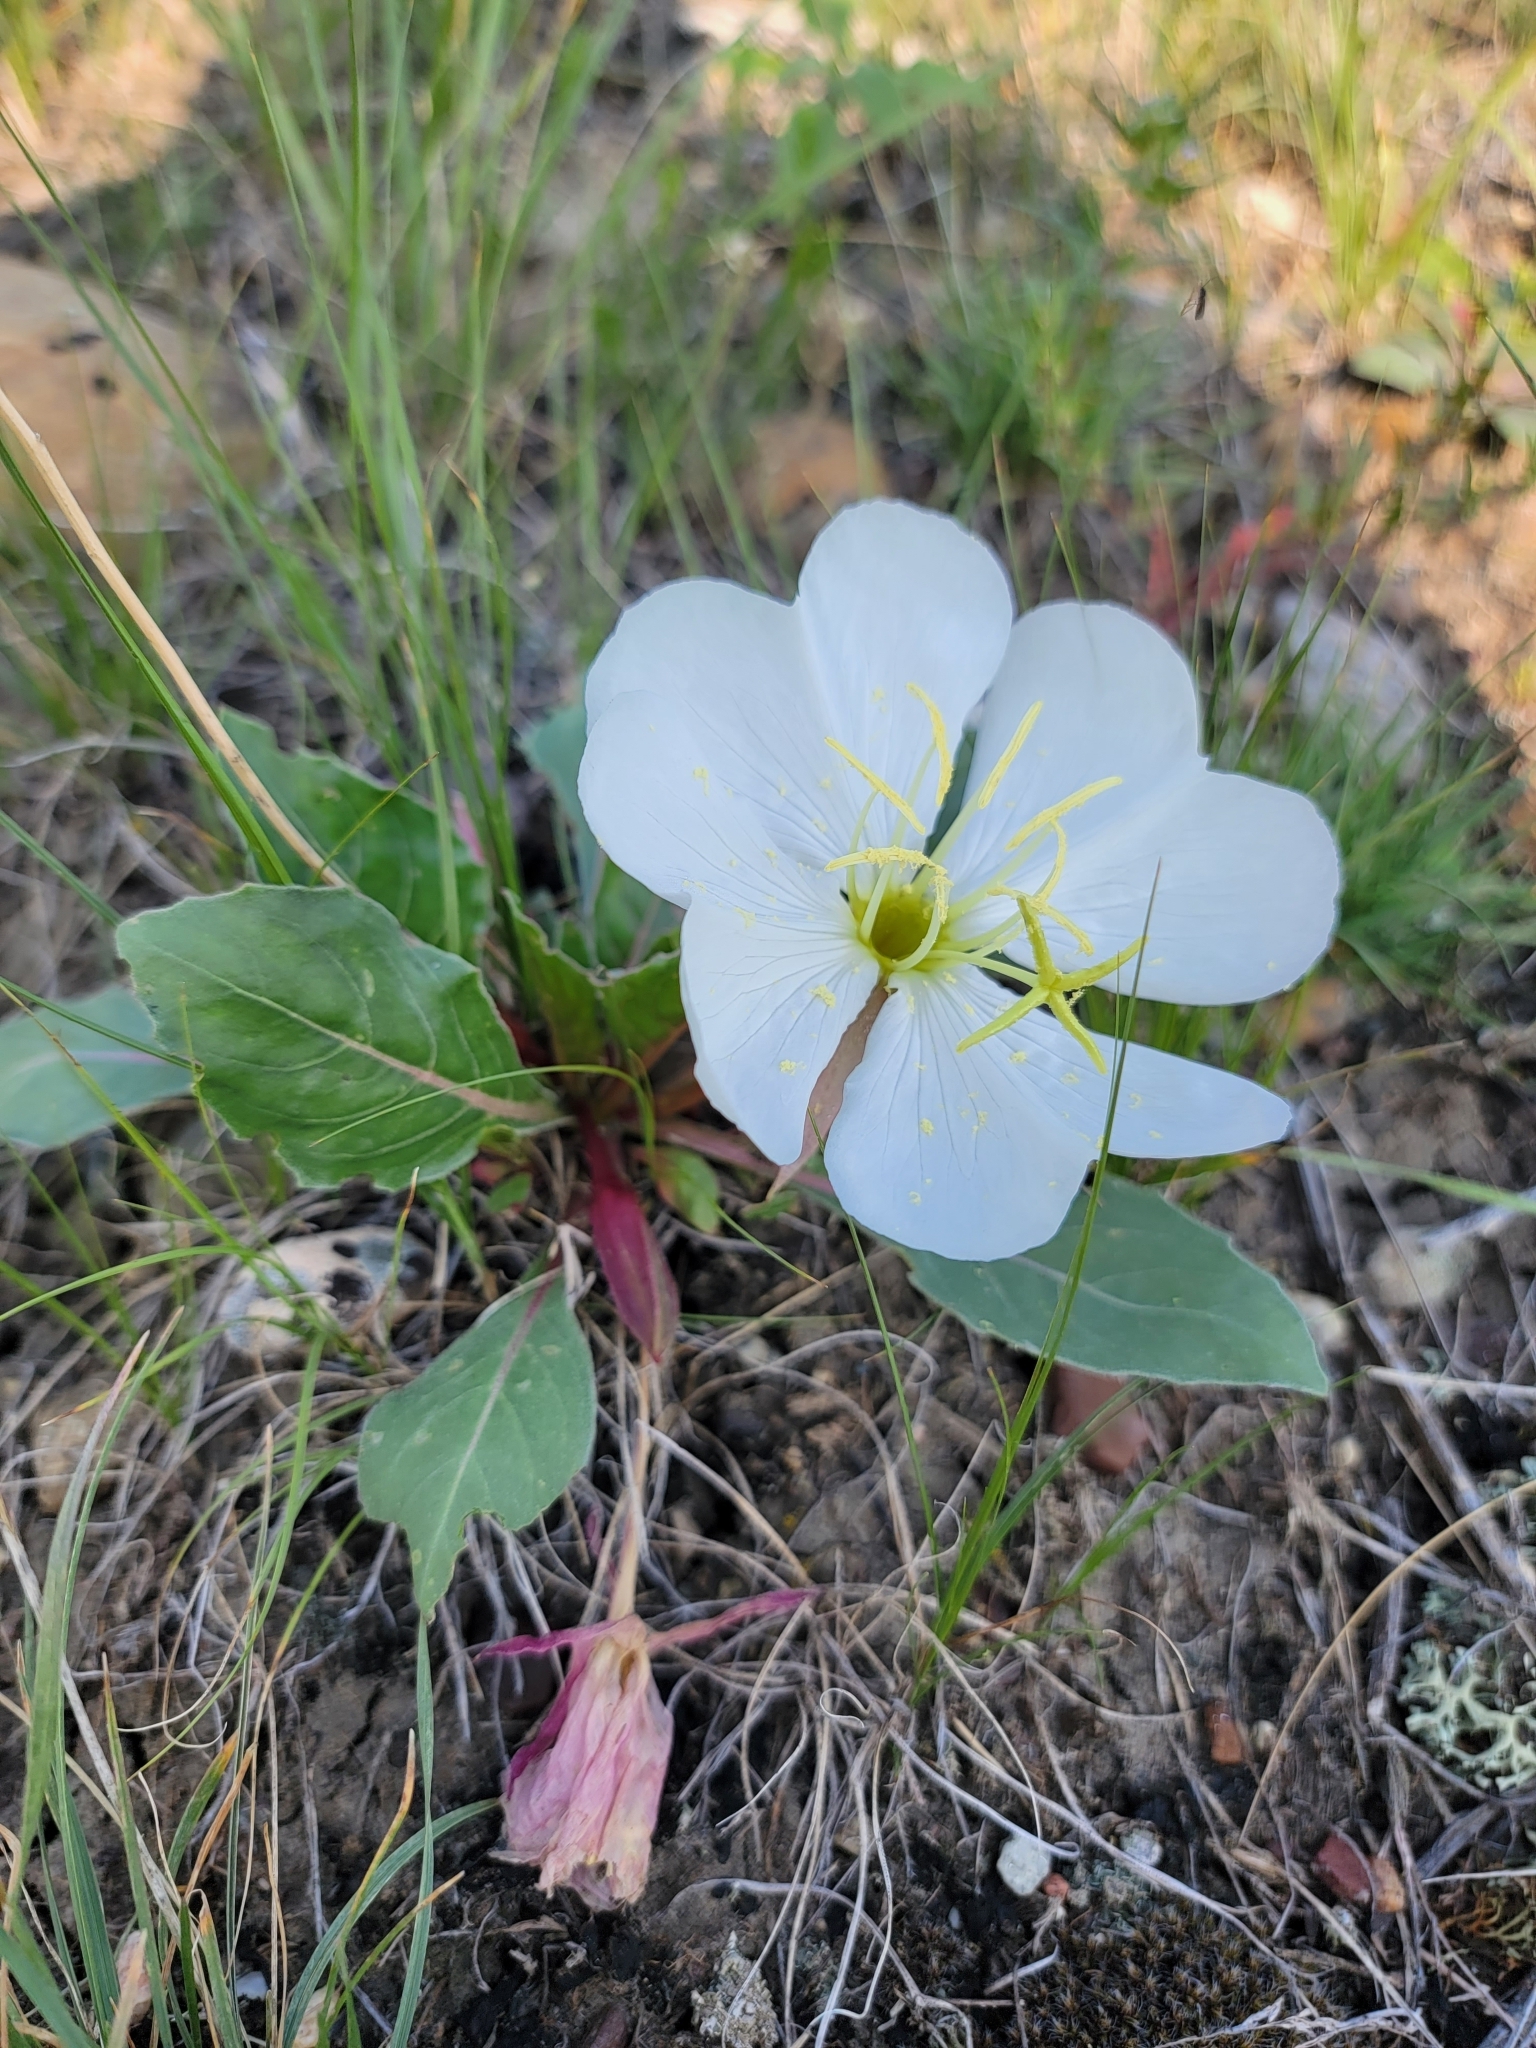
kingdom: Plantae
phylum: Tracheophyta
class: Magnoliopsida
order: Myrtales
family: Onagraceae
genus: Oenothera
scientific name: Oenothera cespitosa
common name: Tufted evening-primrose
